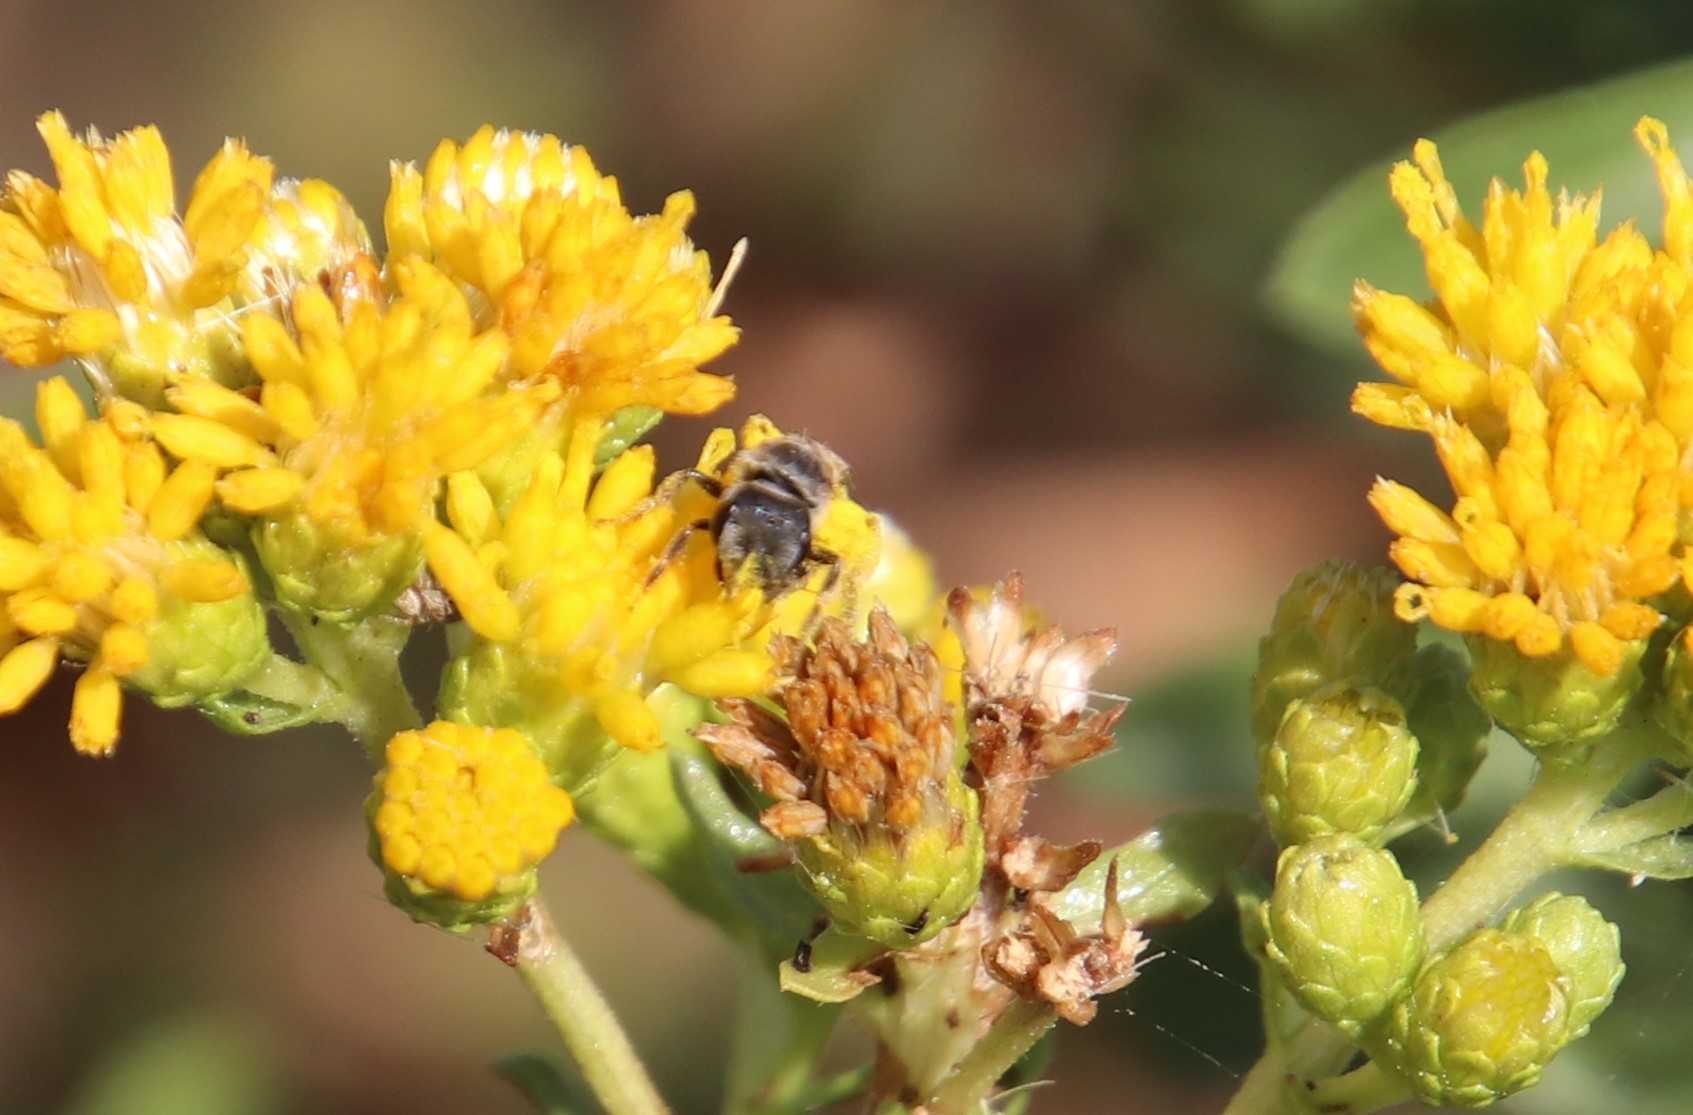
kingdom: Animalia
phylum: Arthropoda
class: Insecta
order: Hymenoptera
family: Halictidae
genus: Halictus
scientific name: Halictus ligatus
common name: Ligated furrow bee
